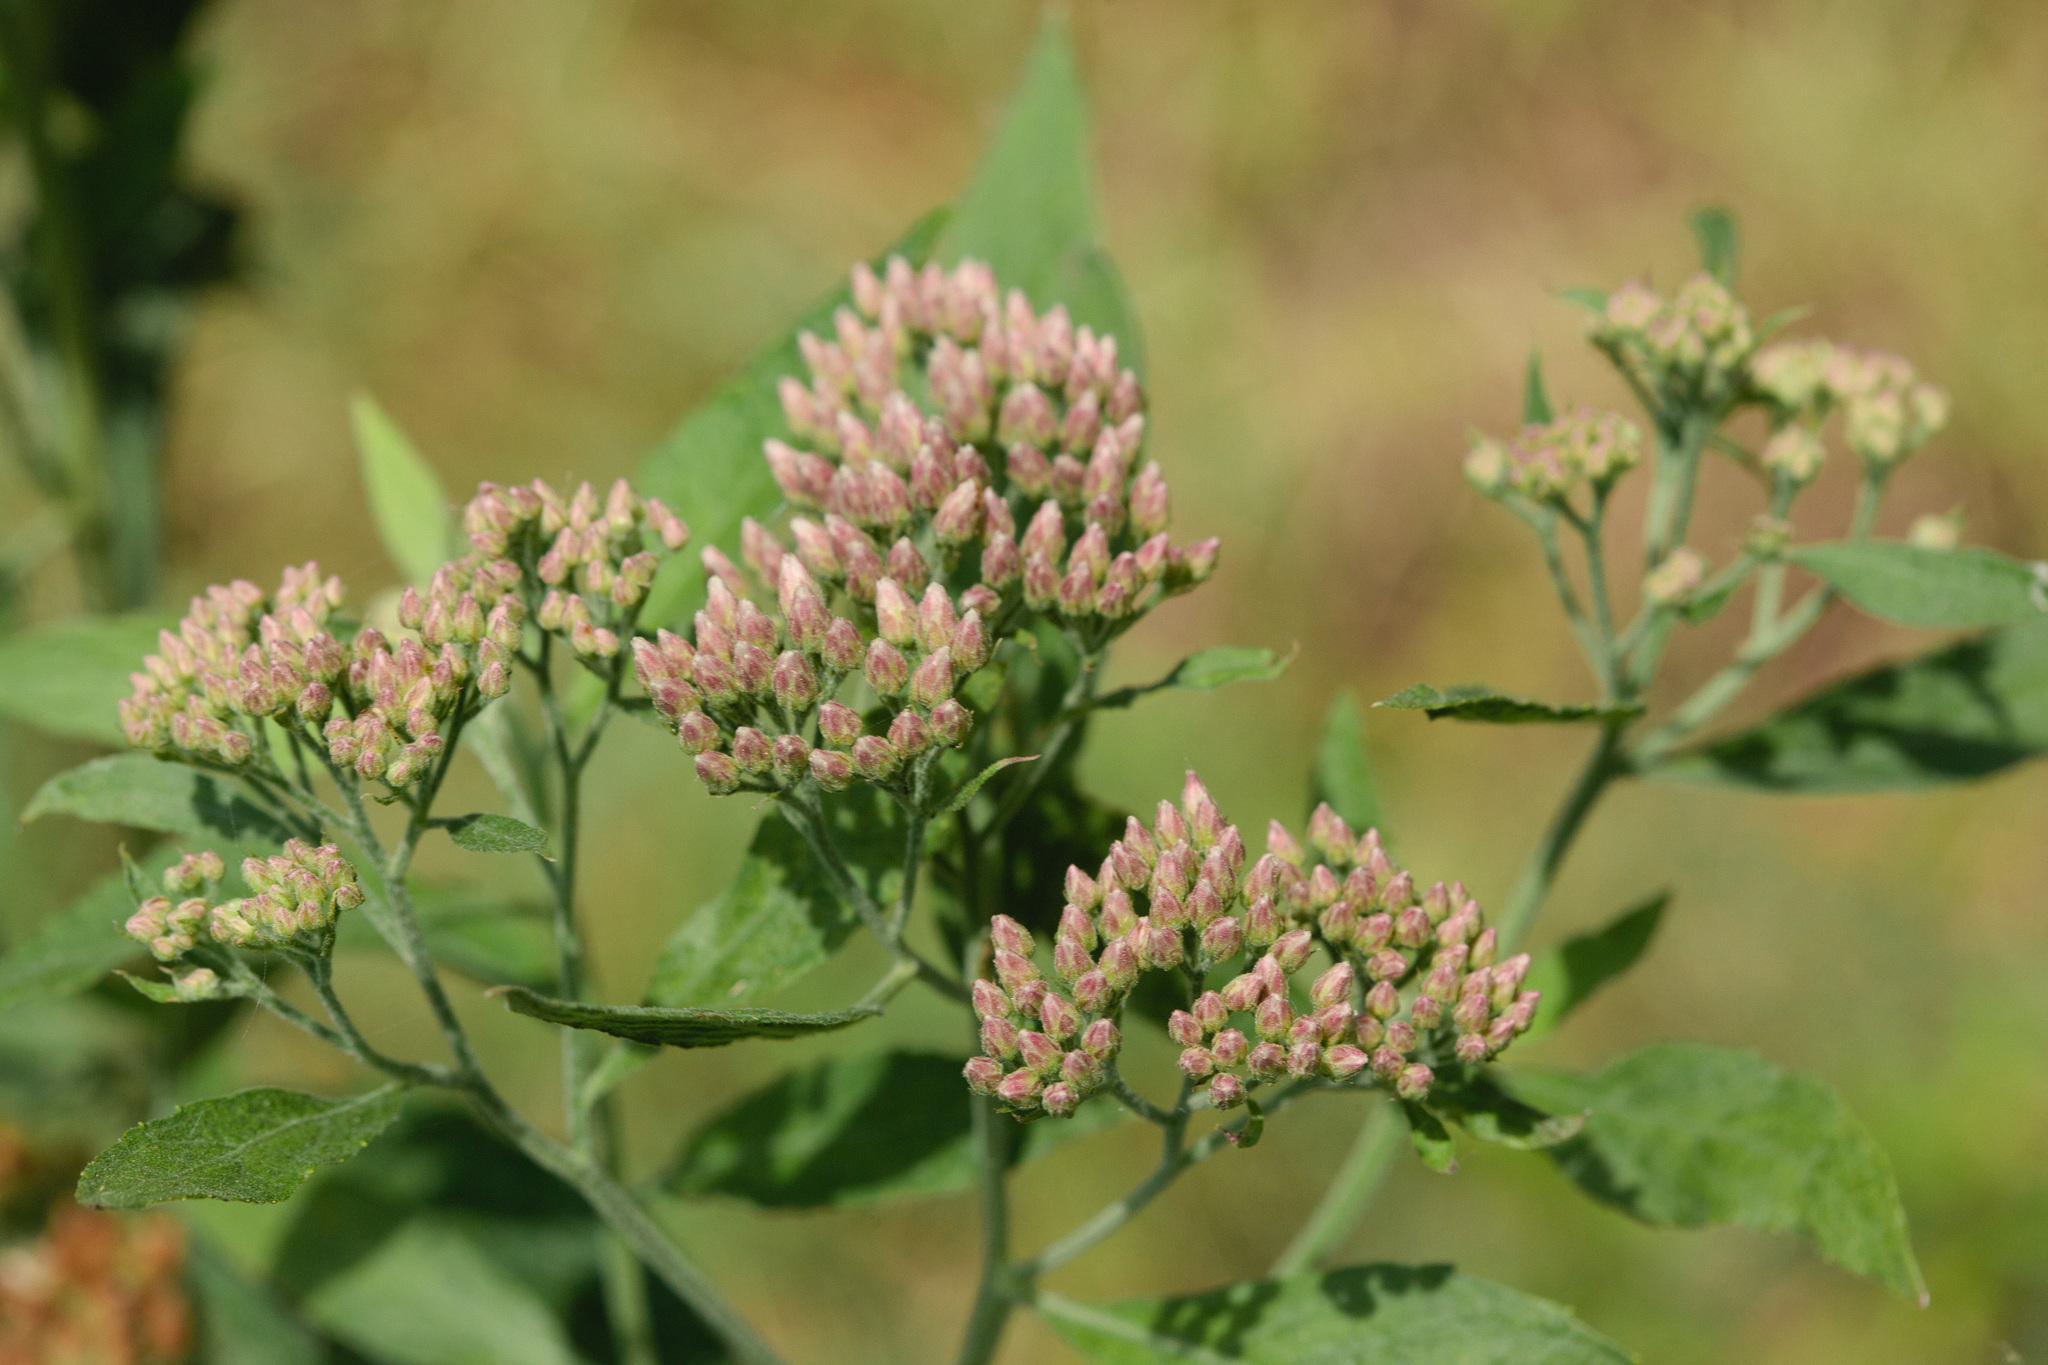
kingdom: Plantae
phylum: Tracheophyta
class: Magnoliopsida
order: Asterales
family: Asteraceae
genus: Pluchea
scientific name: Pluchea camphorata
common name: Camphor pluchea
